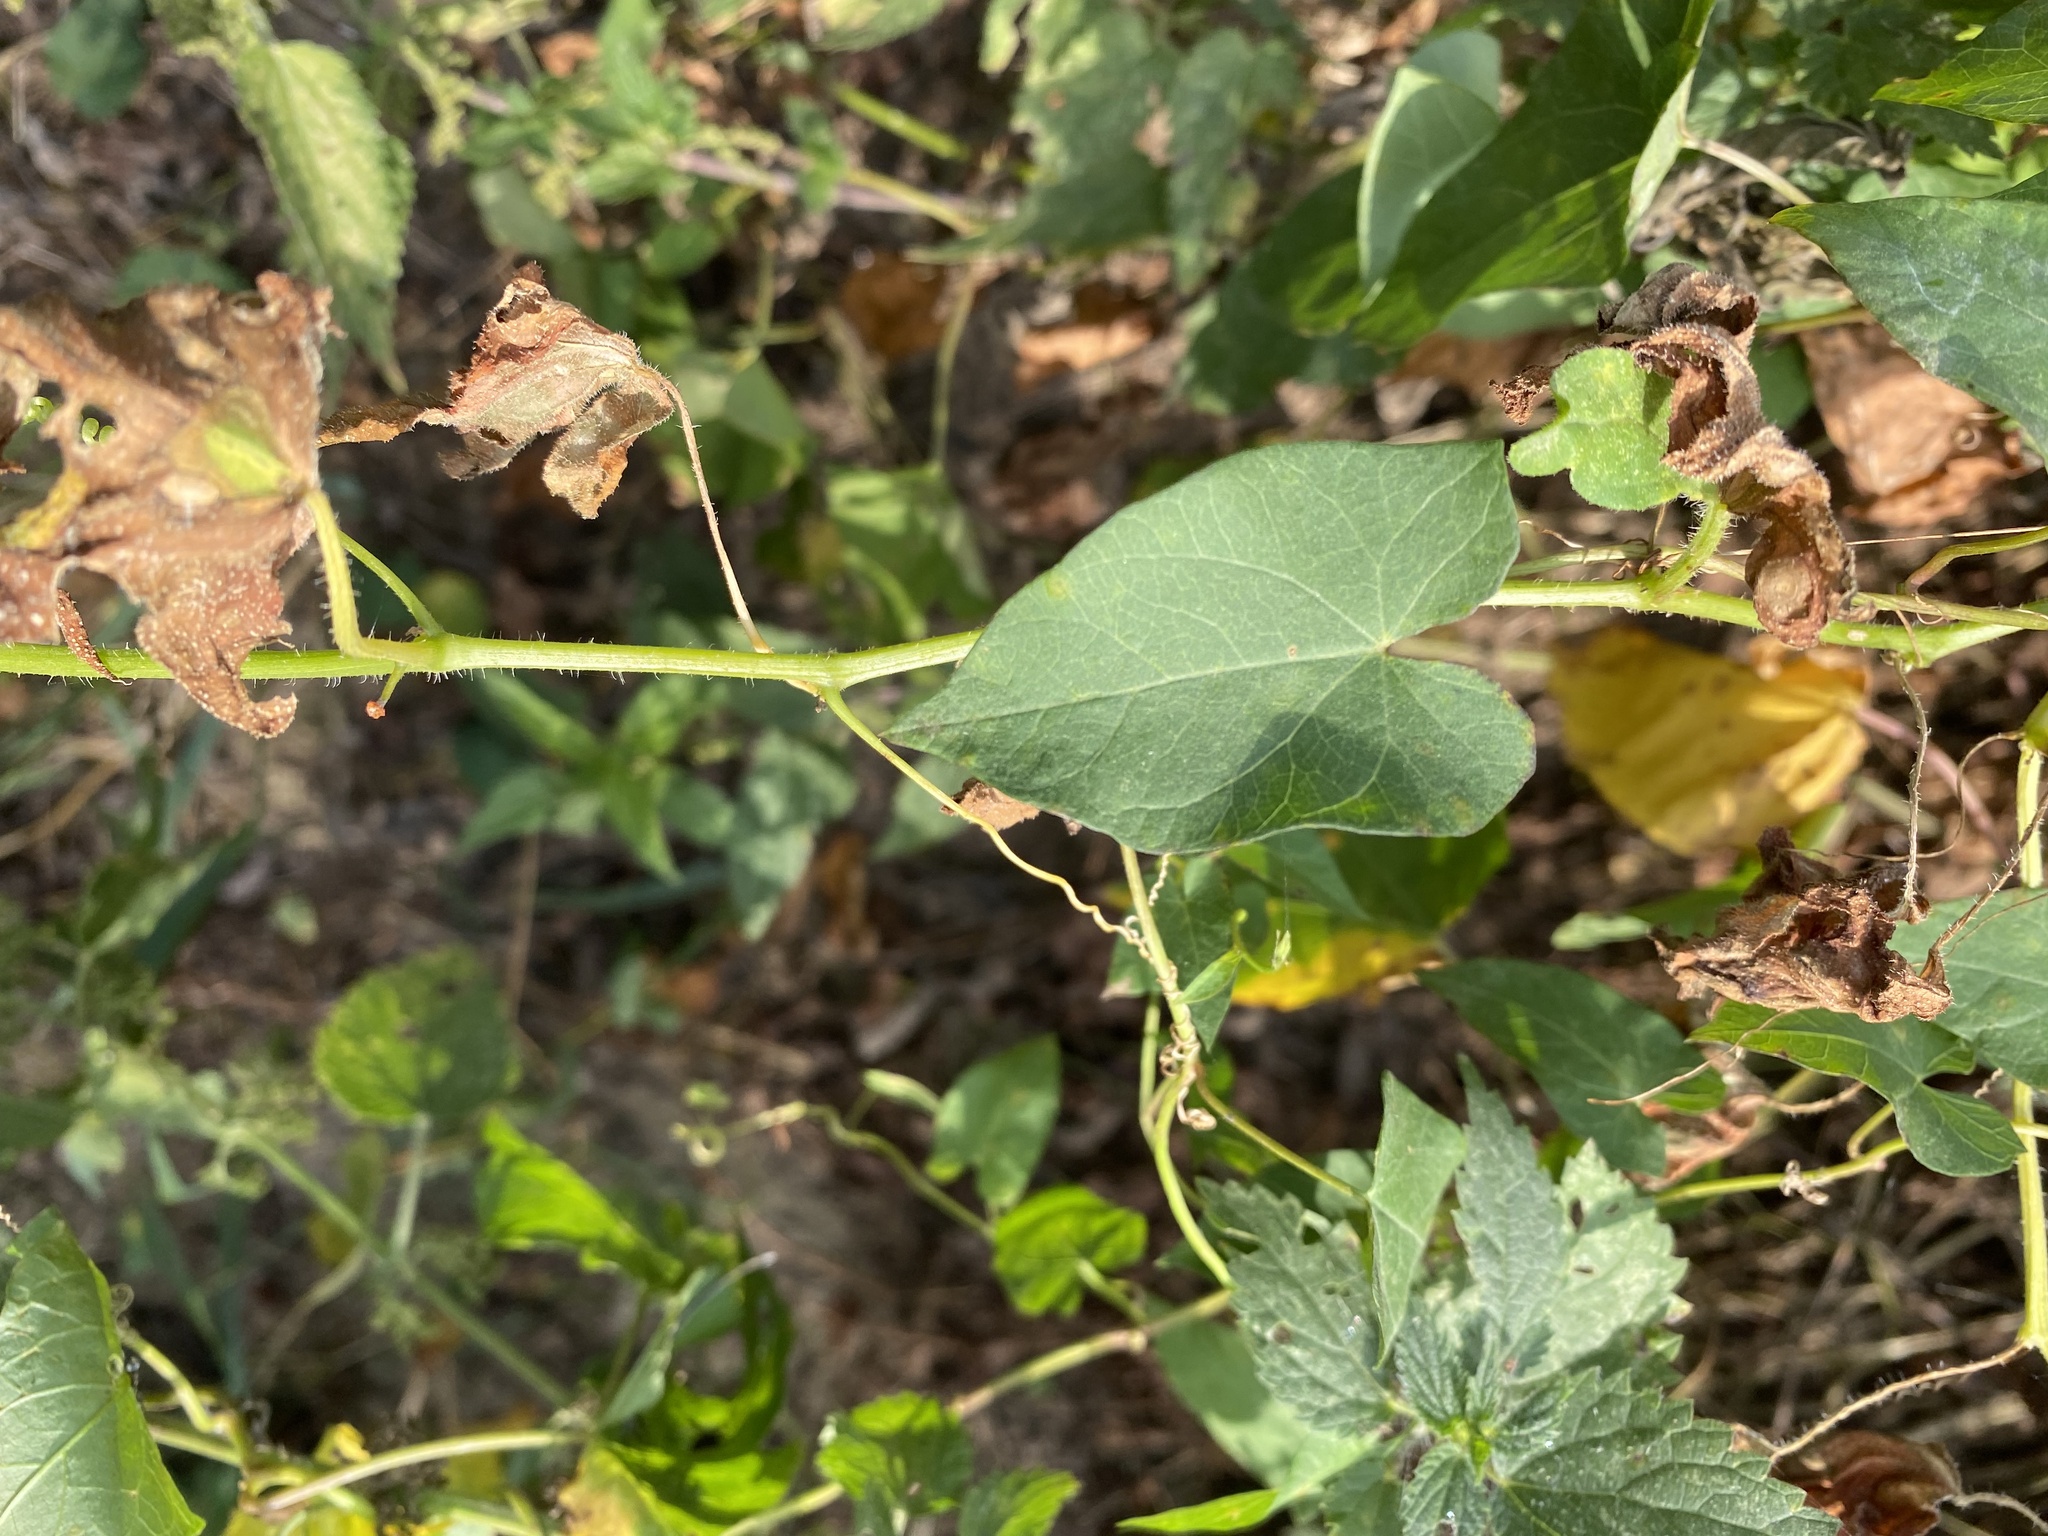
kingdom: Plantae
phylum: Tracheophyta
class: Magnoliopsida
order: Cucurbitales
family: Cucurbitaceae
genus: Bryonia
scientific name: Bryonia cretica
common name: Cretan bryony
